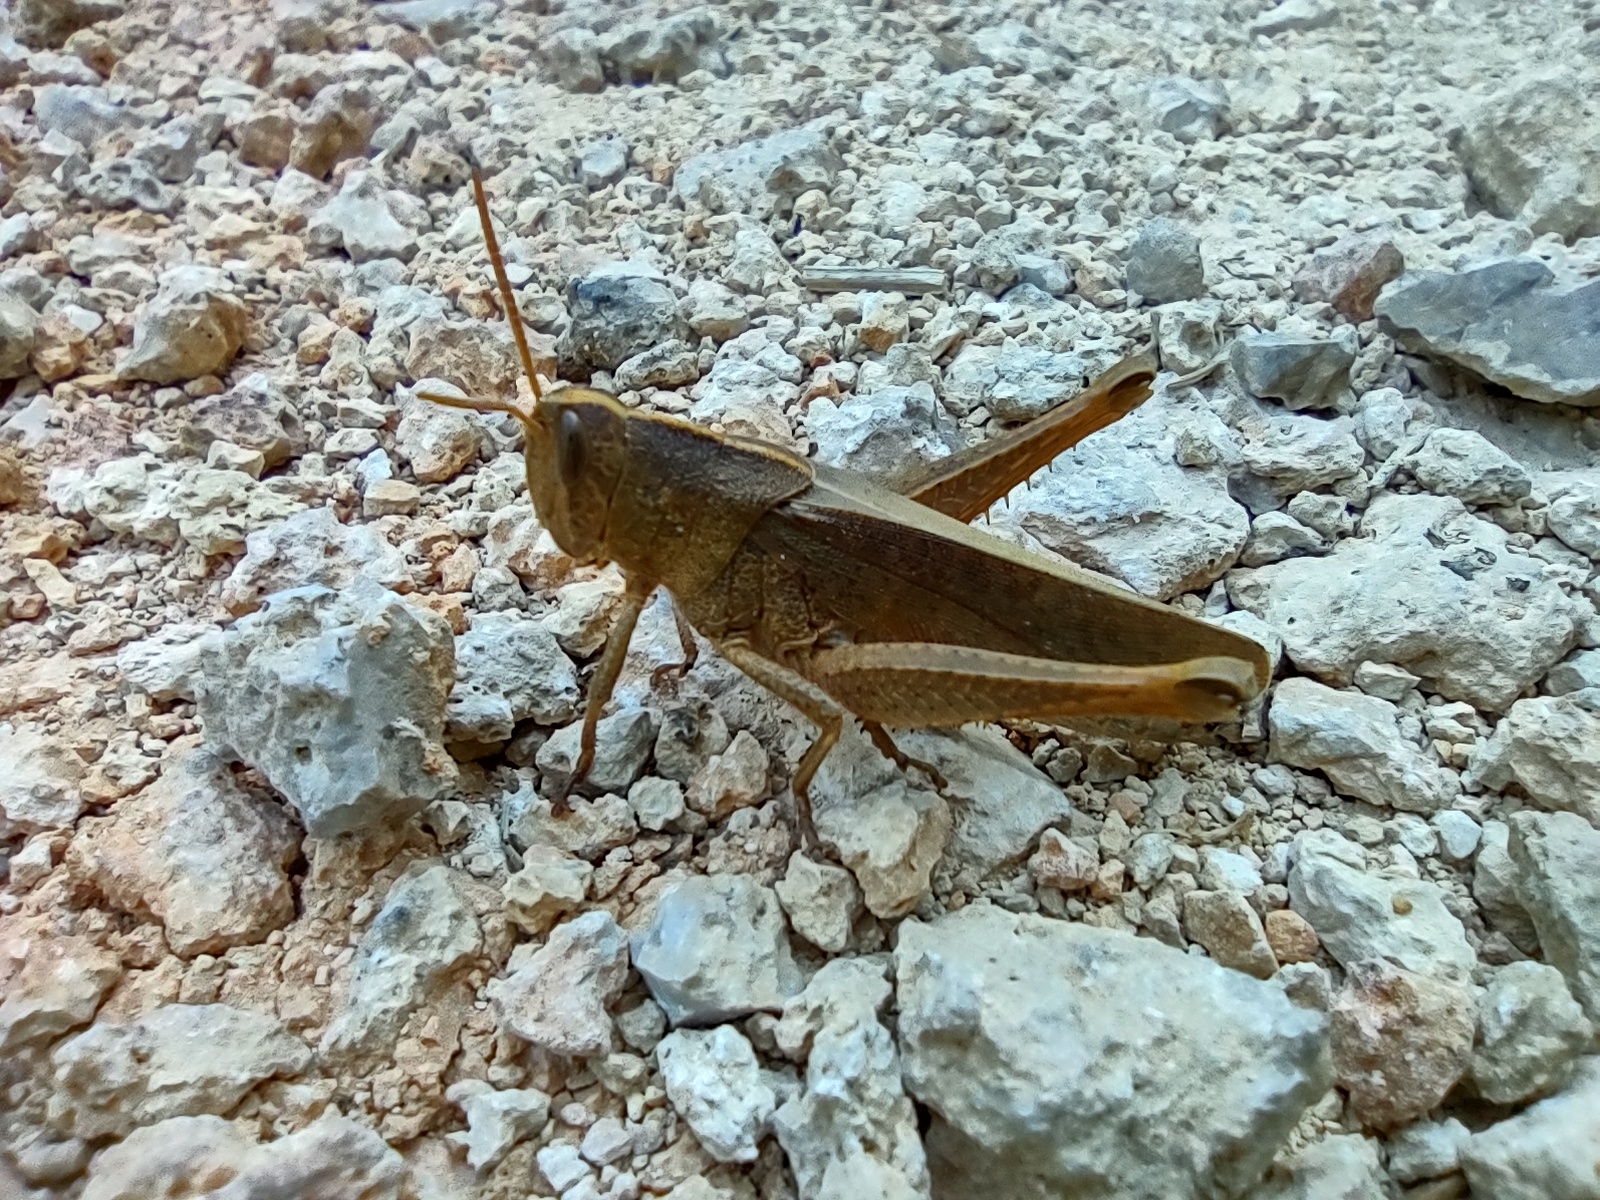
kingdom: Animalia
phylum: Arthropoda
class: Insecta
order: Orthoptera
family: Acrididae
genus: Schistocerca
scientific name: Schistocerca damnifica
